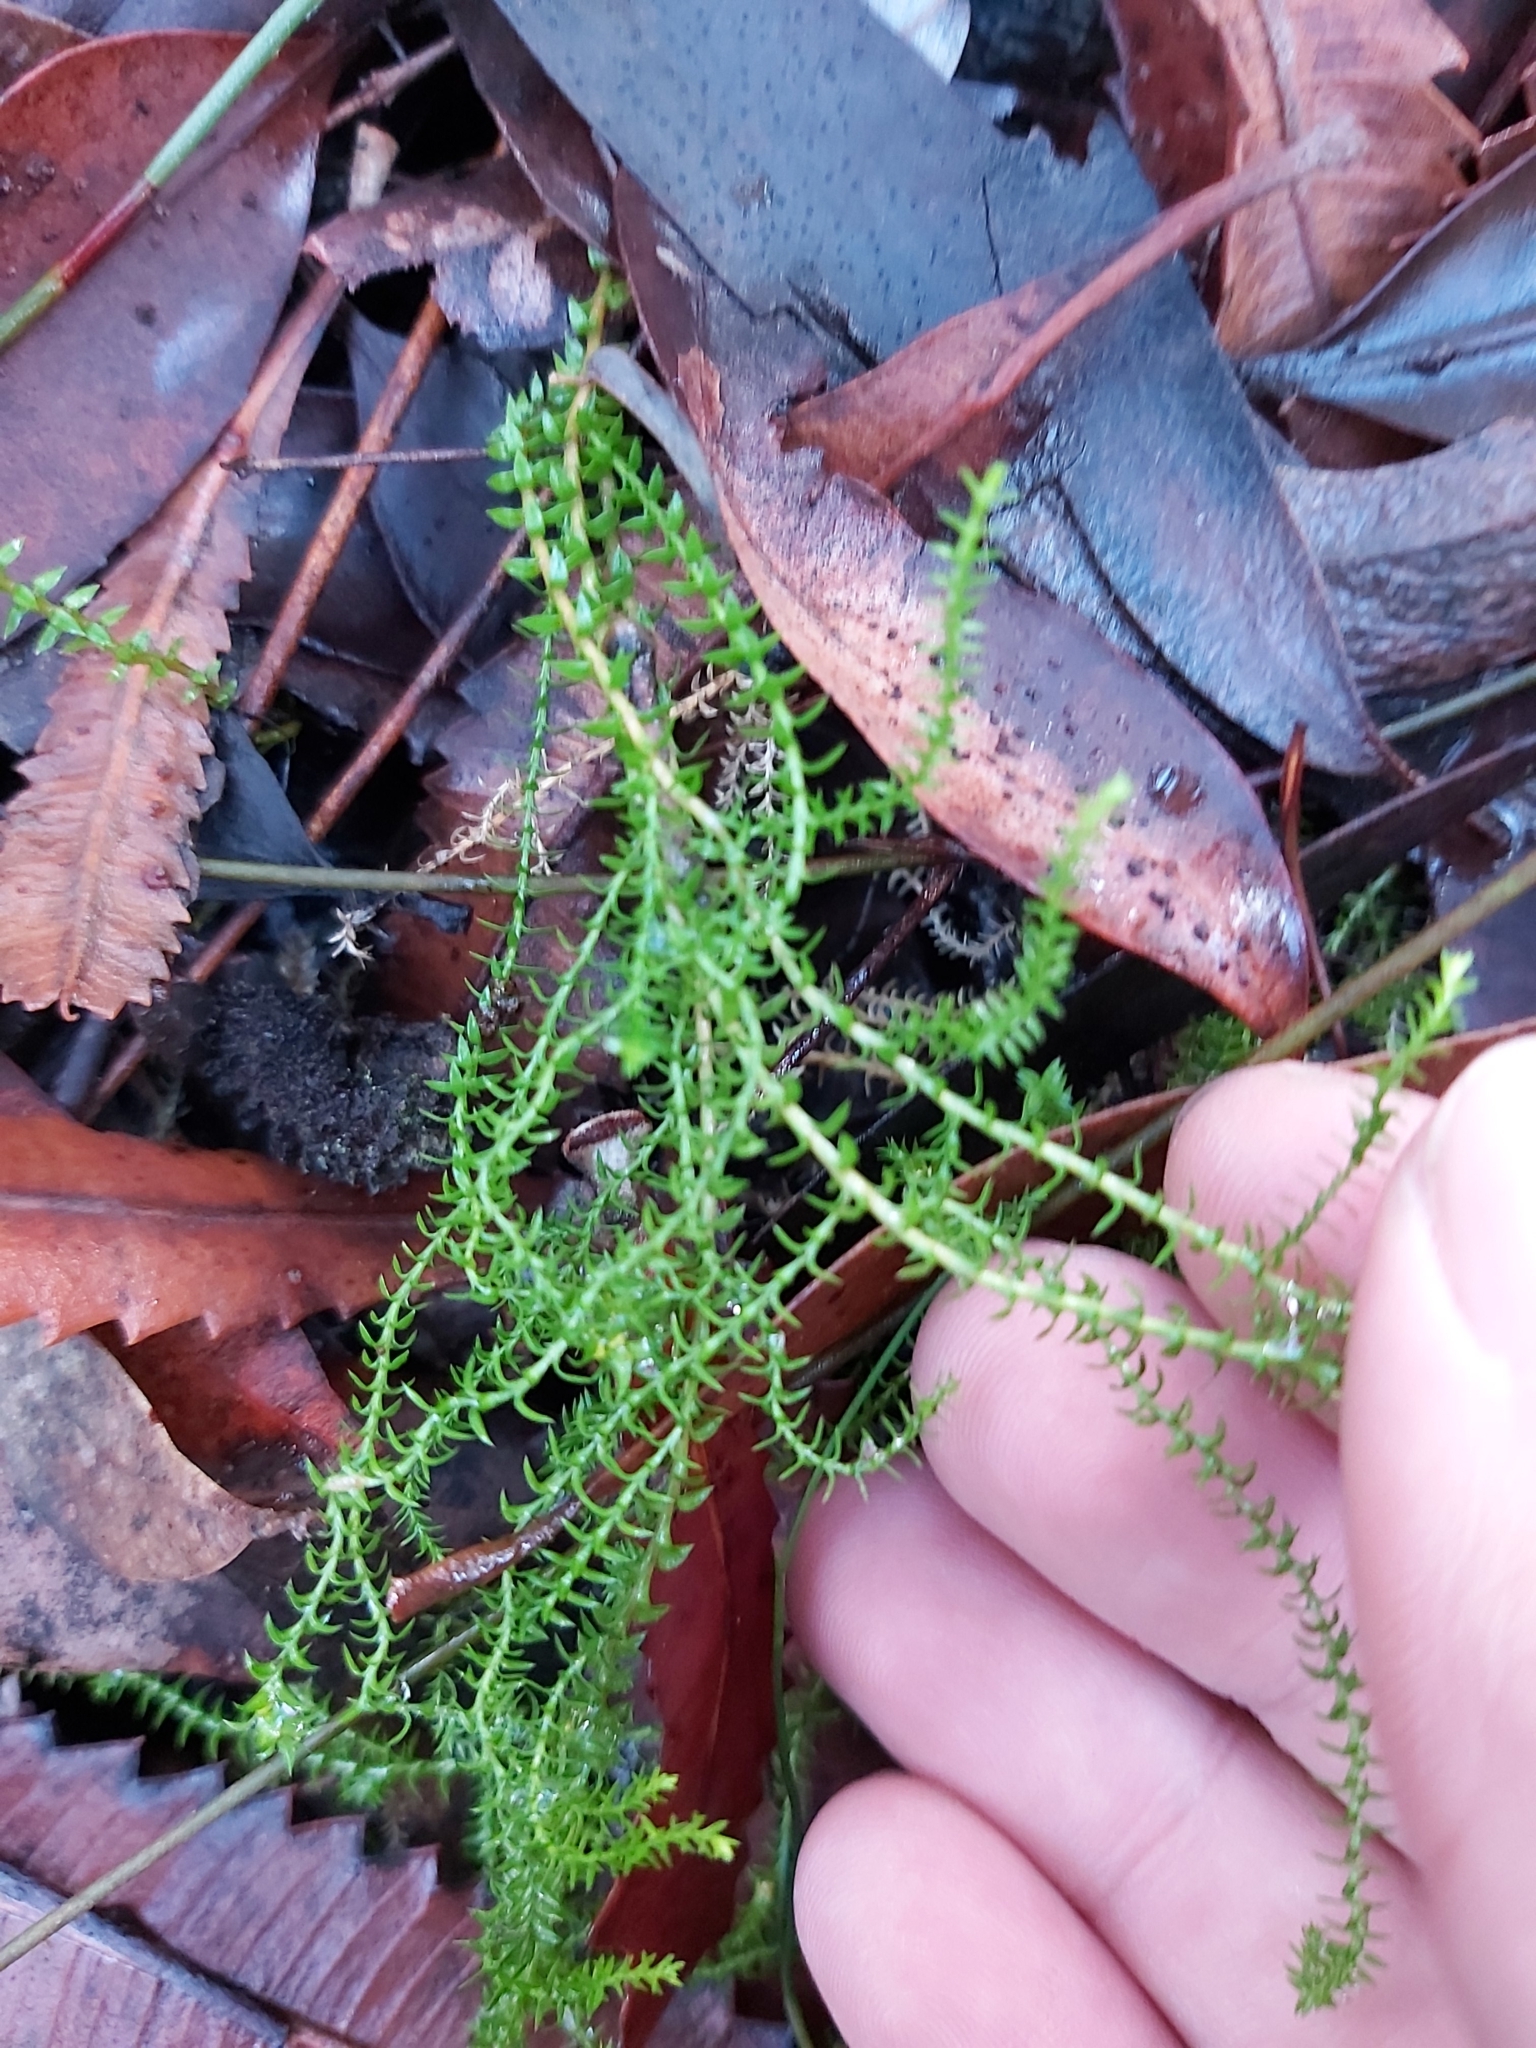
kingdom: Plantae
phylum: Tracheophyta
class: Lycopodiopsida
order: Selaginellales
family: Selaginellaceae
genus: Selaginella
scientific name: Selaginella uliginosa
